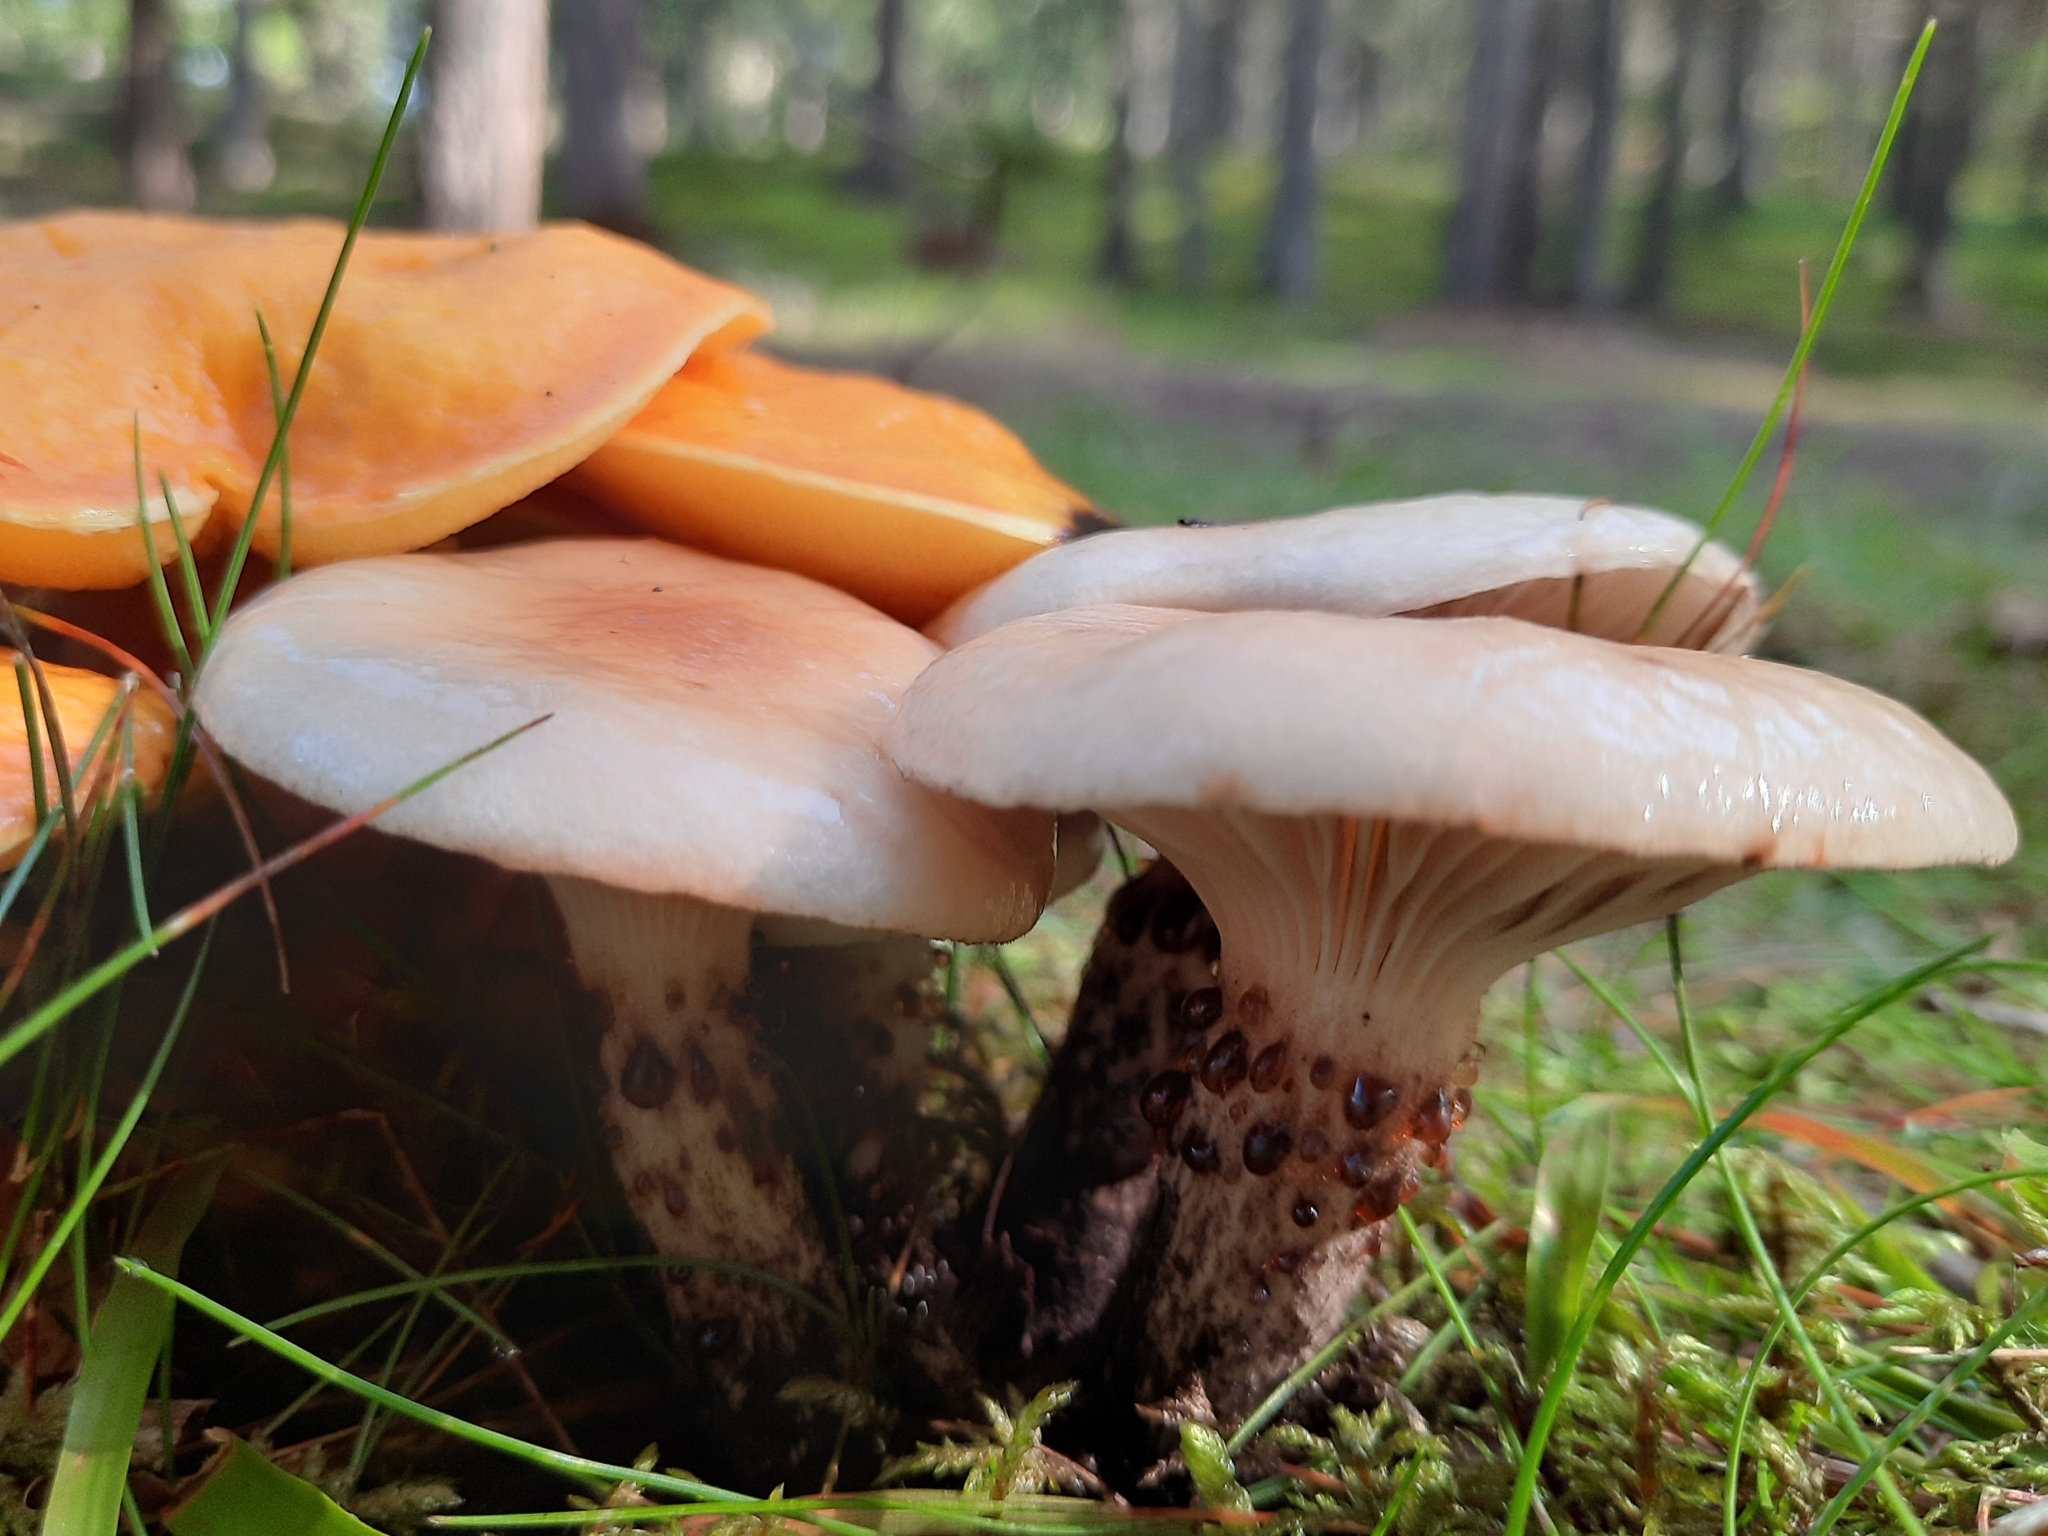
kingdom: Fungi
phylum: Basidiomycota
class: Agaricomycetes
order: Boletales
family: Gomphidiaceae
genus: Gomphidius
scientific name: Gomphidius maculatus
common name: Larch spike
